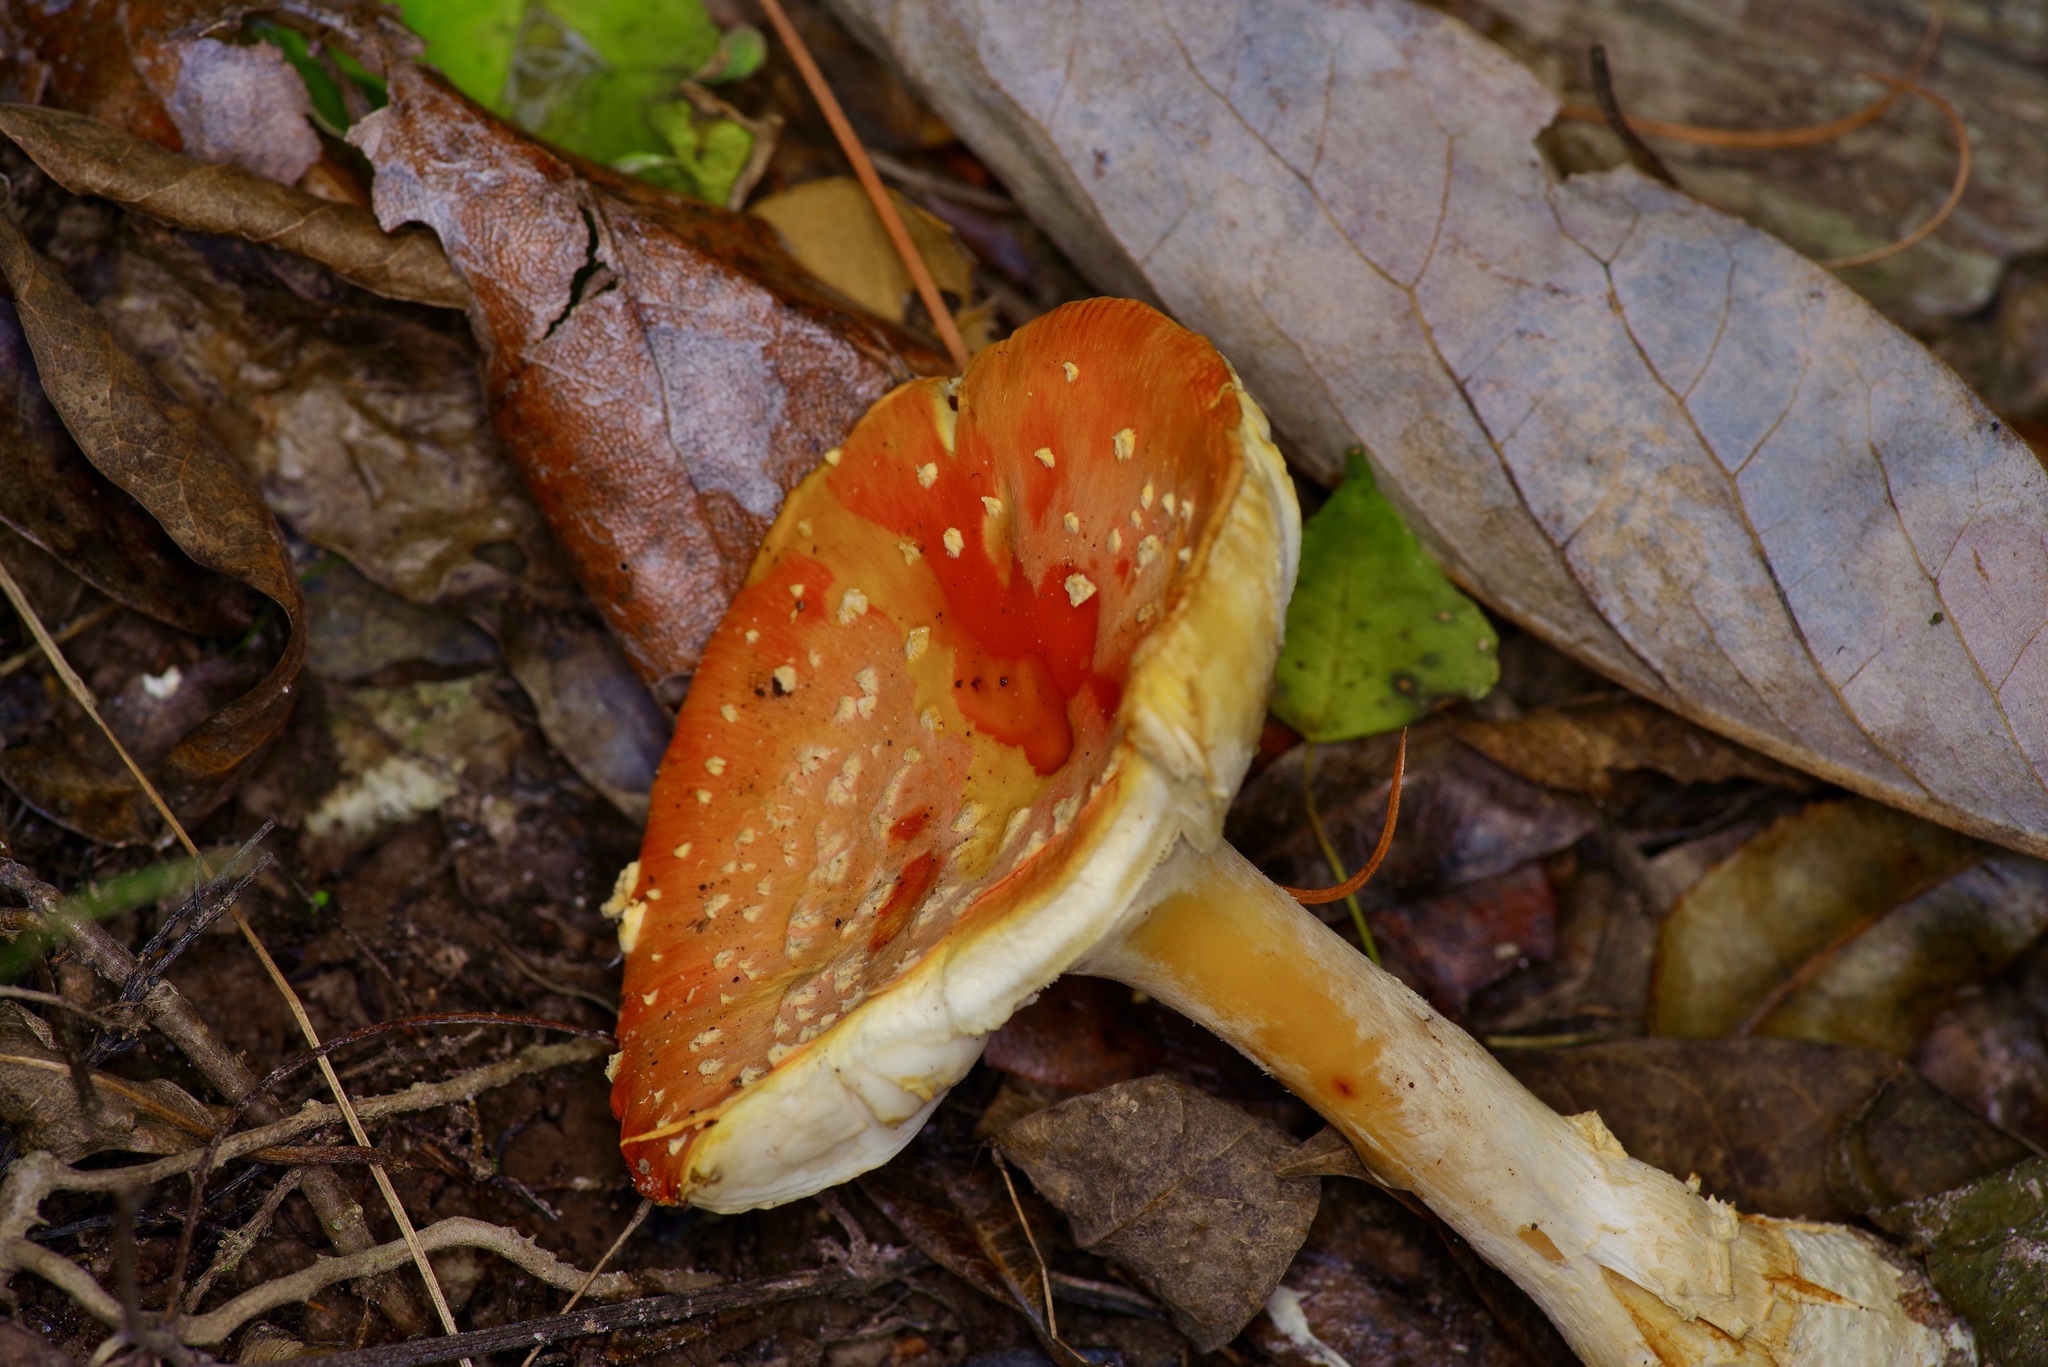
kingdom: Fungi
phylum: Basidiomycota
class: Agaricomycetes
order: Agaricales
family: Amanitaceae
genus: Amanita
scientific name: Amanita persicina
